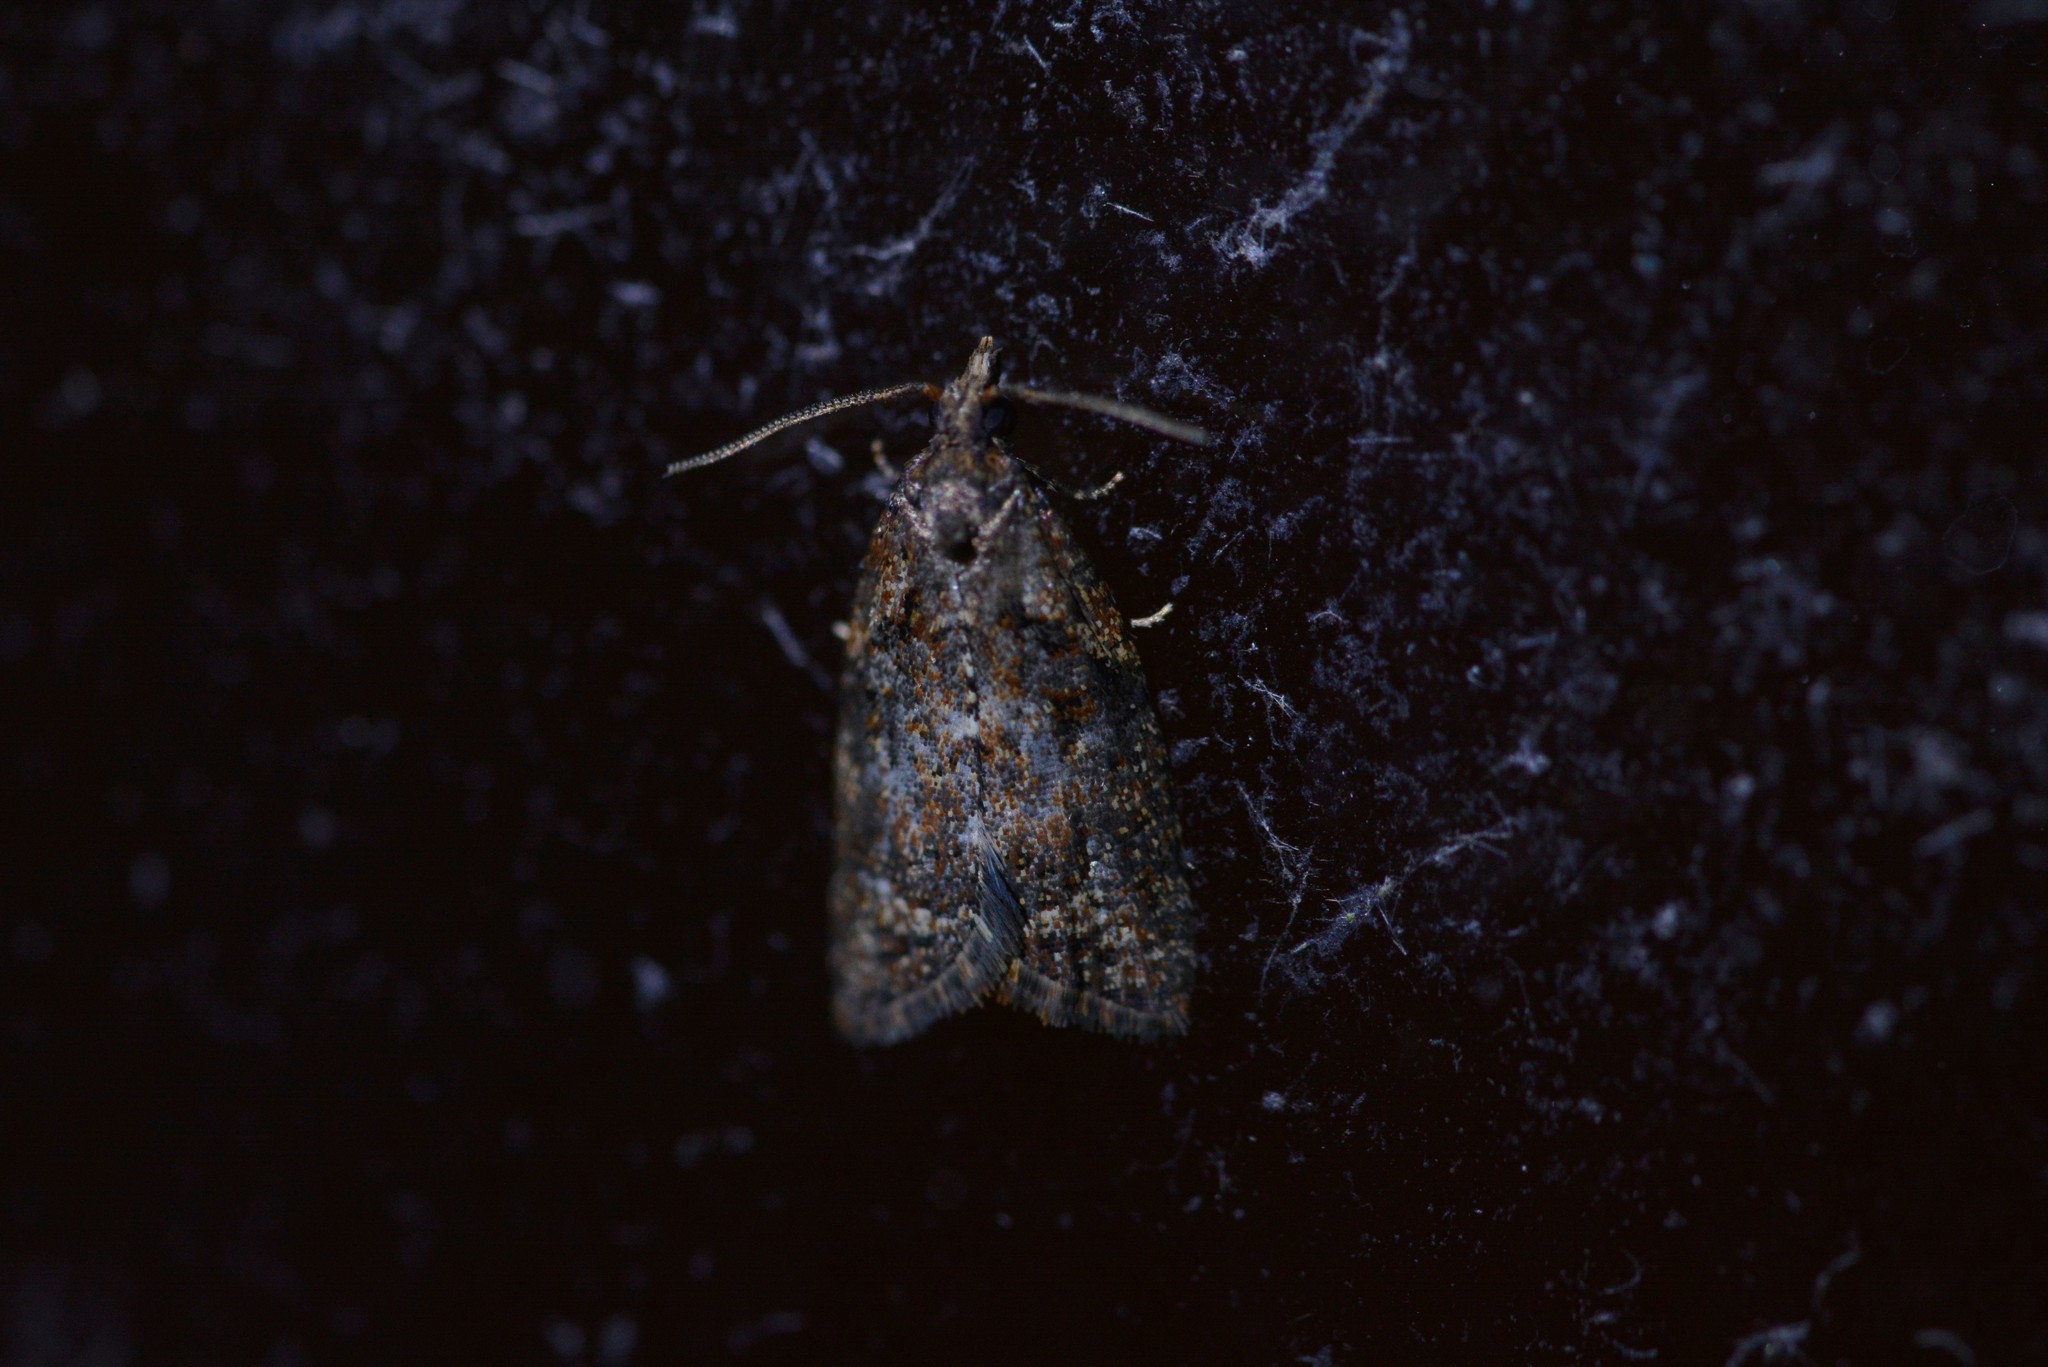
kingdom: Animalia
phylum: Arthropoda
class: Insecta
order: Lepidoptera
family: Tortricidae
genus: Capua
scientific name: Capua intractana
